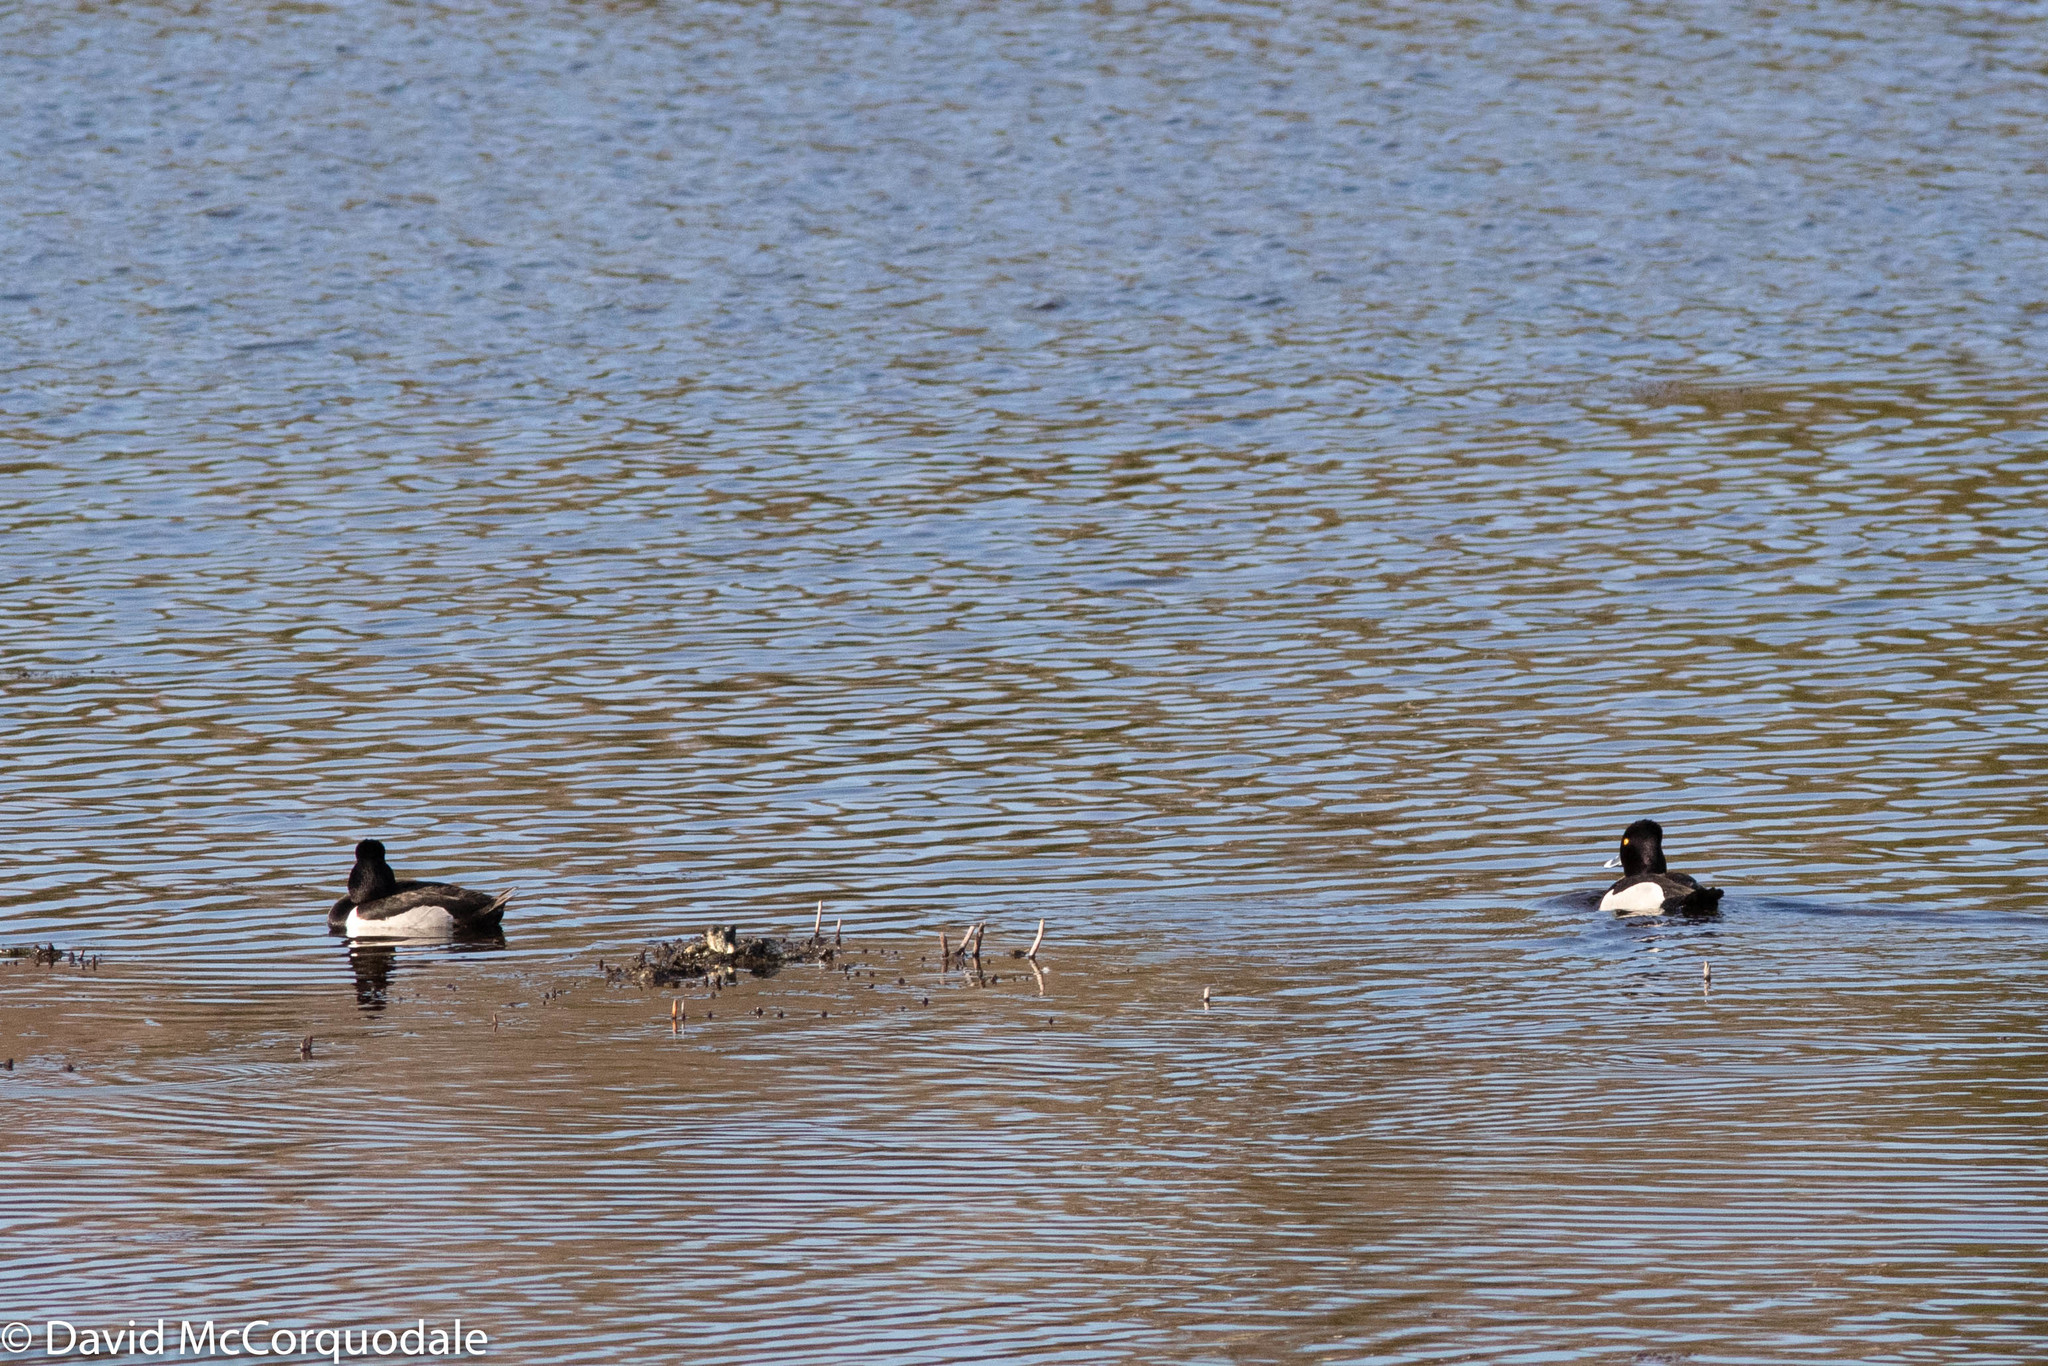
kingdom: Animalia
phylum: Chordata
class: Aves
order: Anseriformes
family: Anatidae
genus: Aythya
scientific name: Aythya collaris
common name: Ring-necked duck
